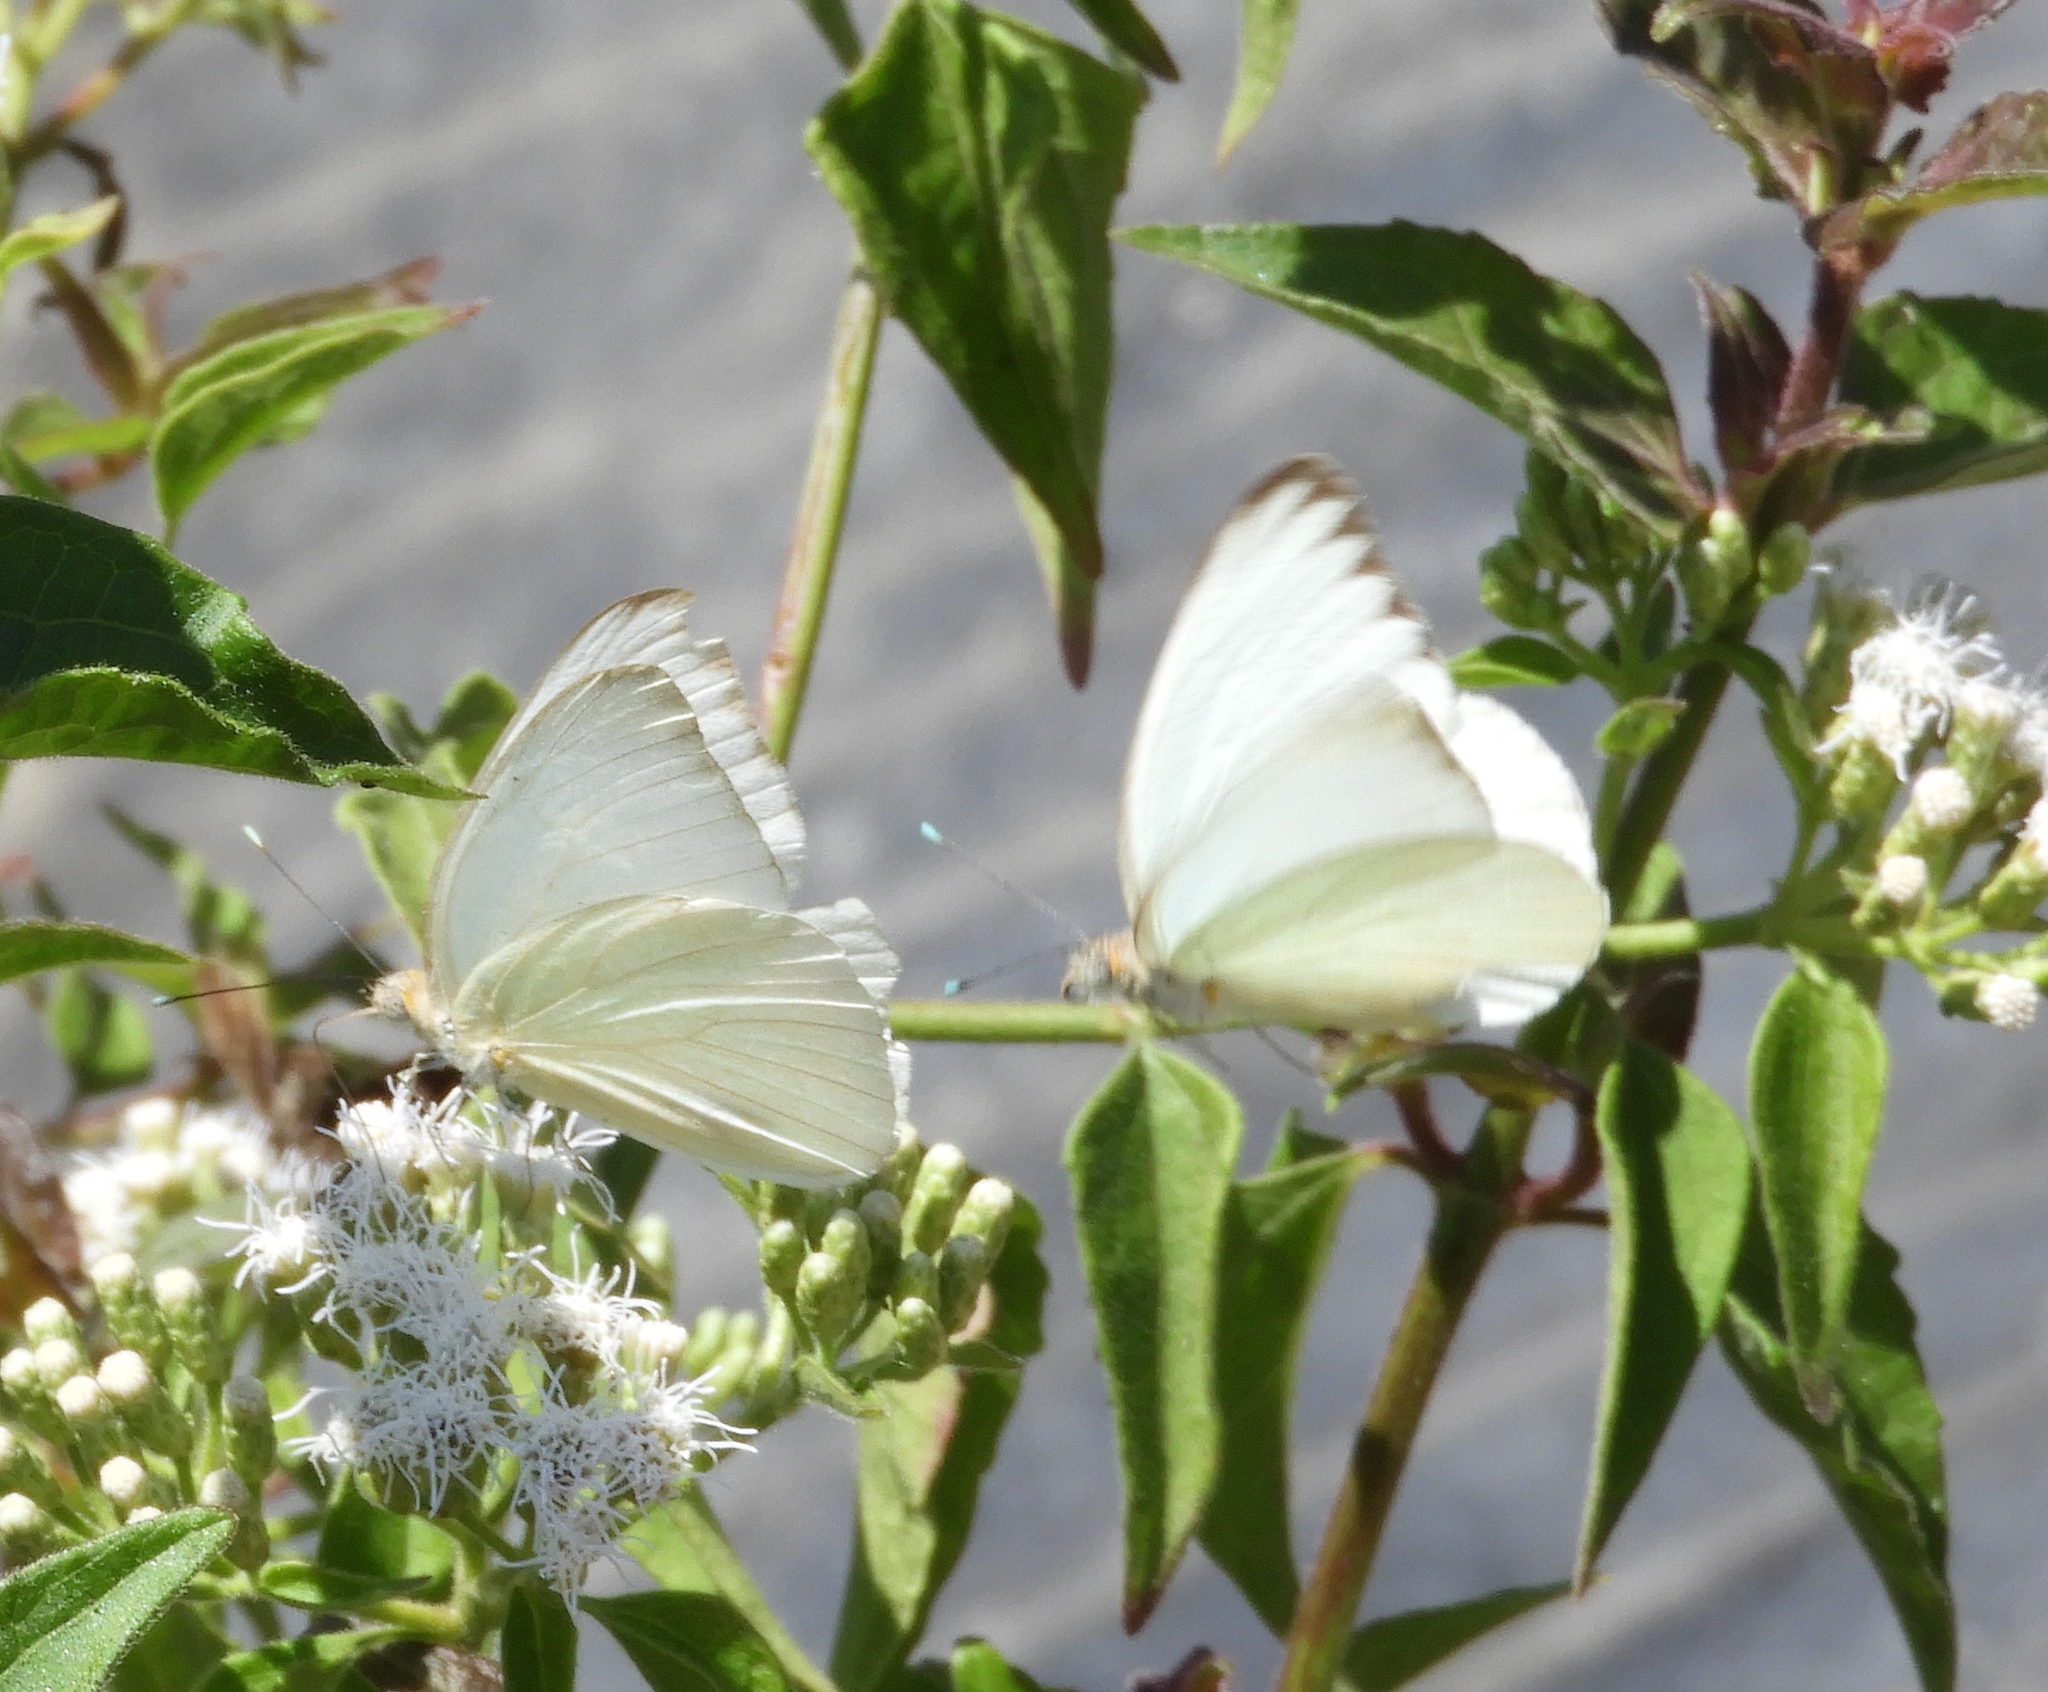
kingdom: Animalia
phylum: Arthropoda
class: Insecta
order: Lepidoptera
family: Pieridae
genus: Ascia
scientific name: Ascia monuste
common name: Great southern white
